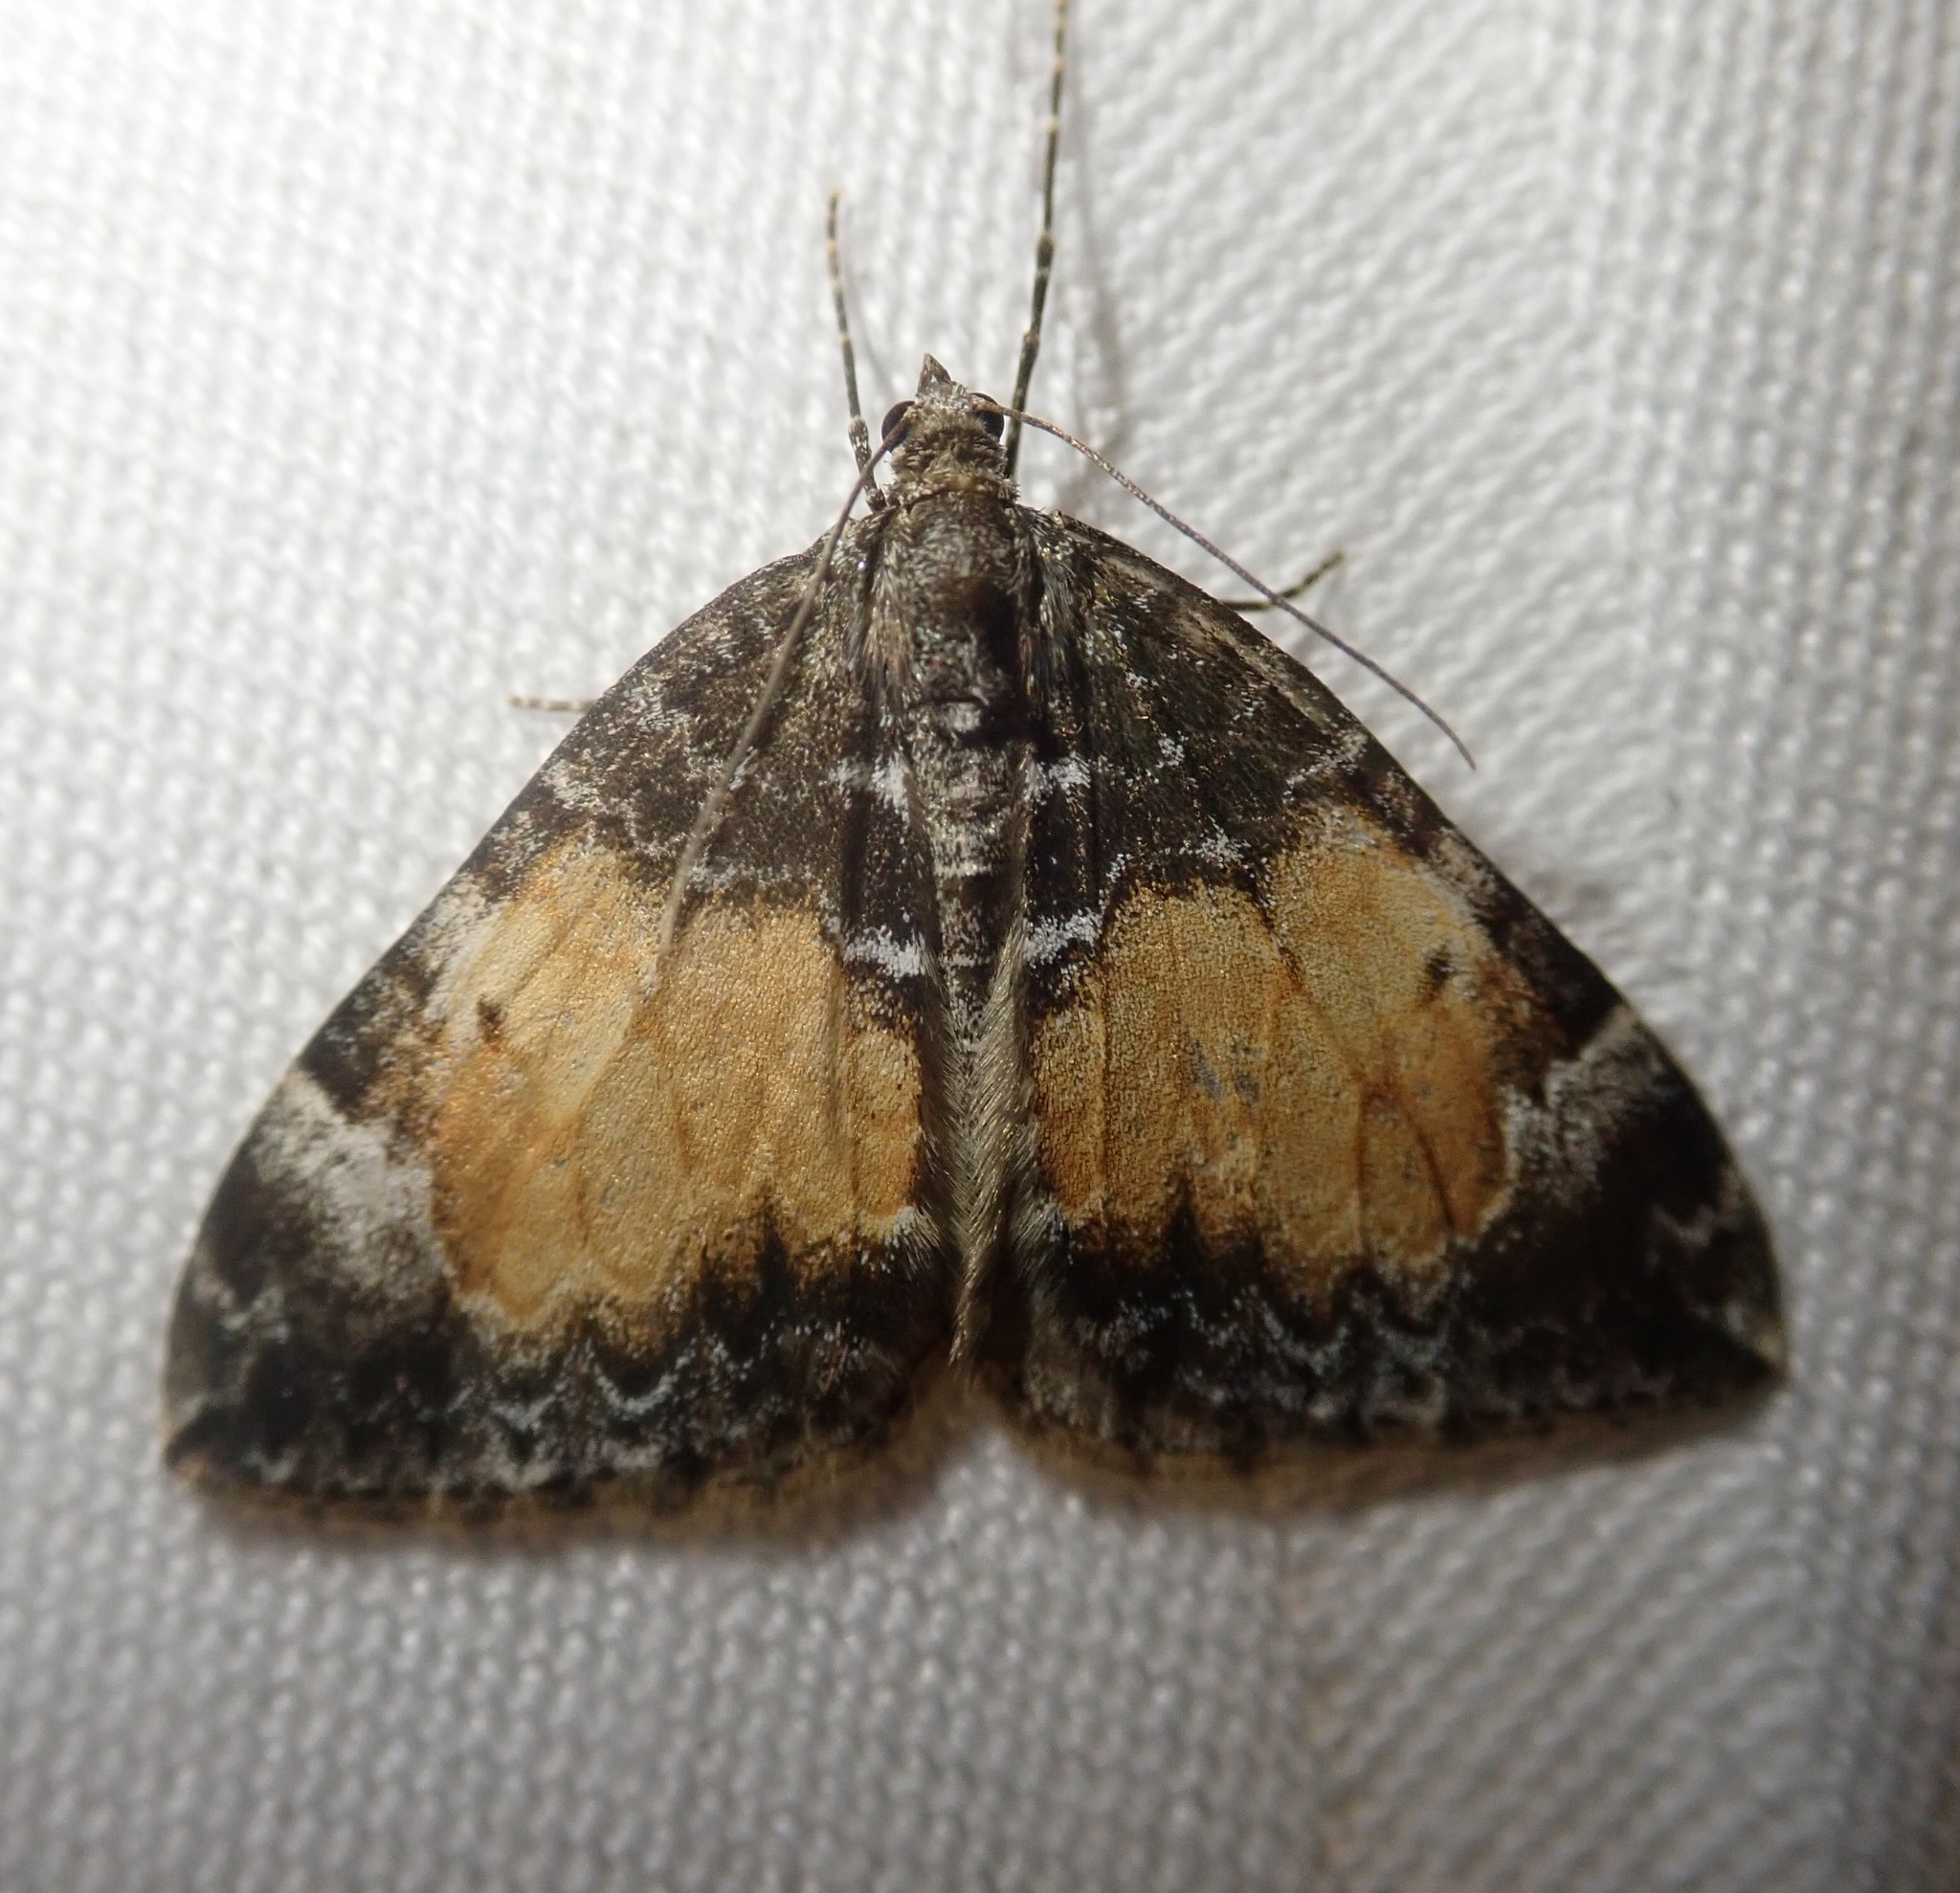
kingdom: Animalia
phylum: Arthropoda
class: Insecta
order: Lepidoptera
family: Geometridae
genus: Dysstroma
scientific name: Dysstroma truncata
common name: Common marbled carpet
